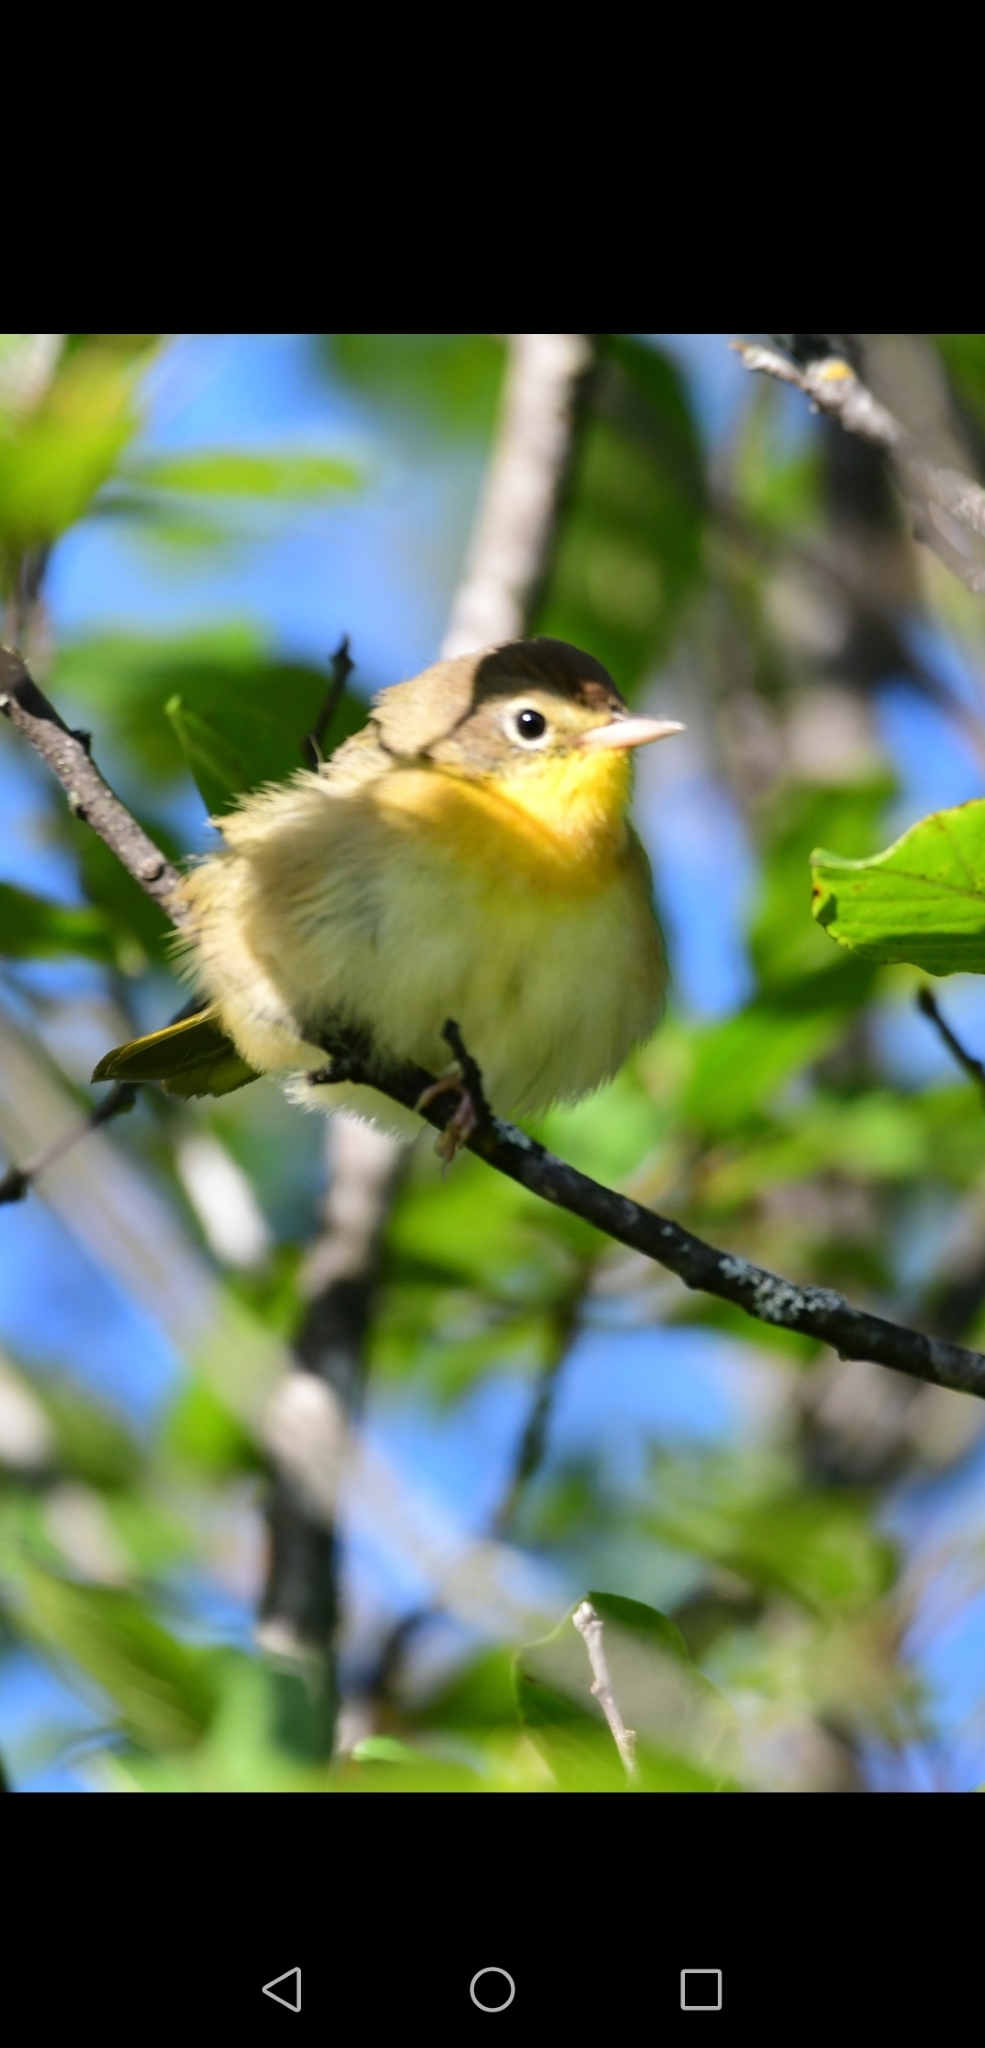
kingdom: Animalia
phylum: Chordata
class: Aves
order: Passeriformes
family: Parulidae
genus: Geothlypis
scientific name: Geothlypis trichas
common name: Common yellowthroat
